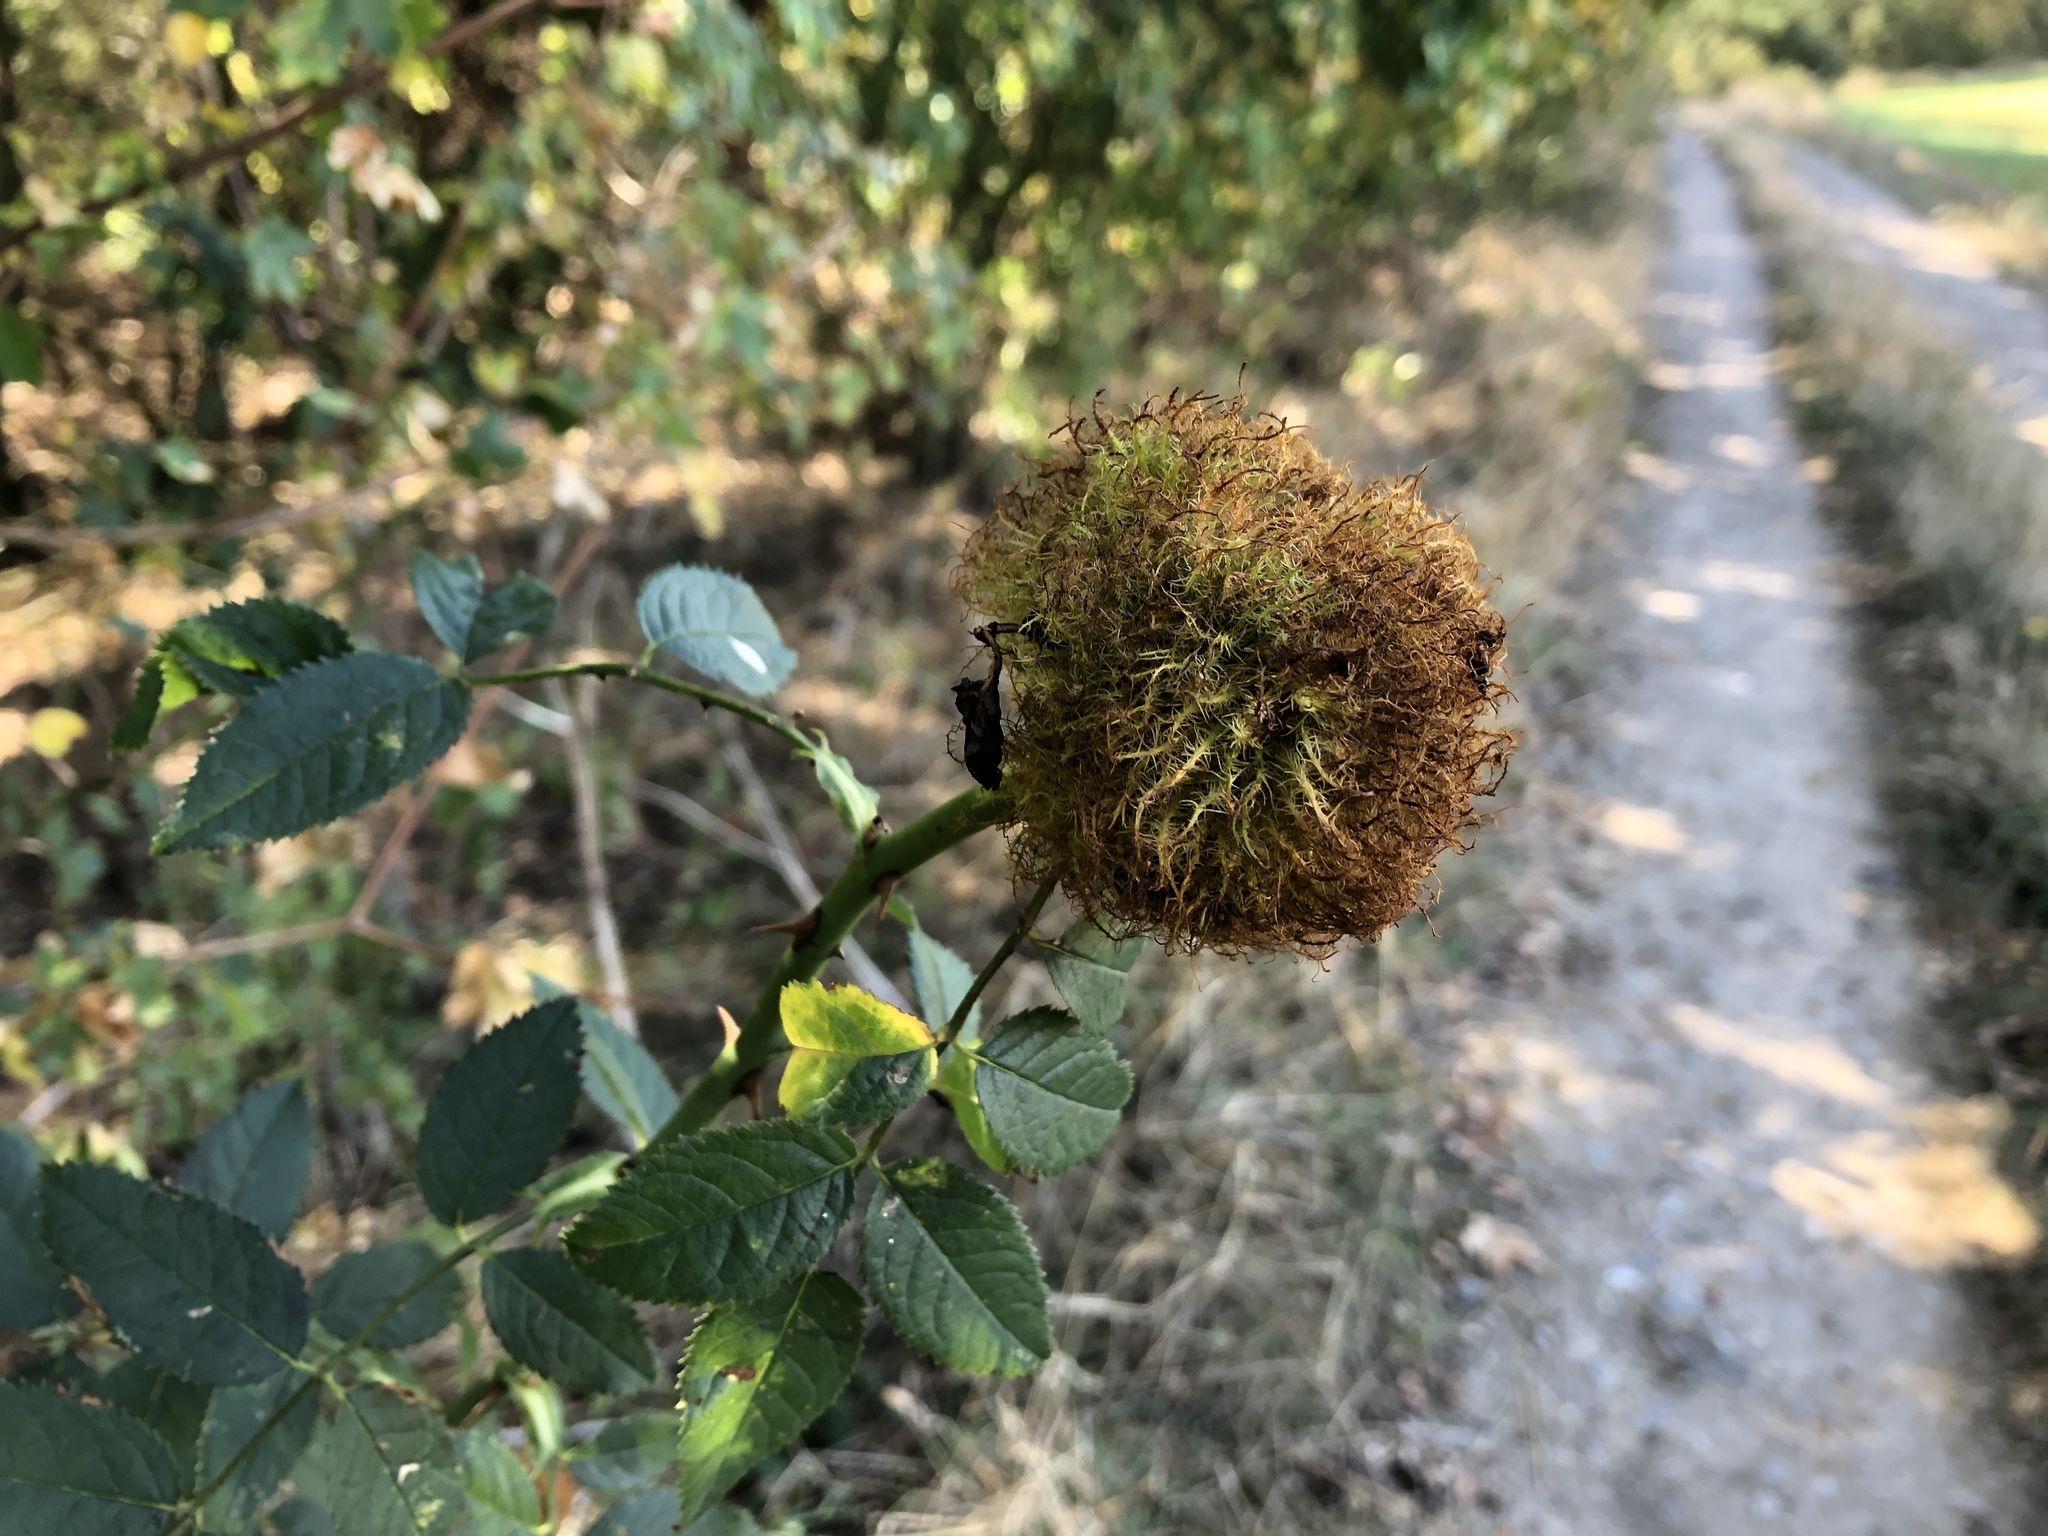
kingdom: Animalia
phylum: Arthropoda
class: Insecta
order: Hymenoptera
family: Cynipidae
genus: Diplolepis
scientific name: Diplolepis rosae
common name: Bedeguar gall
